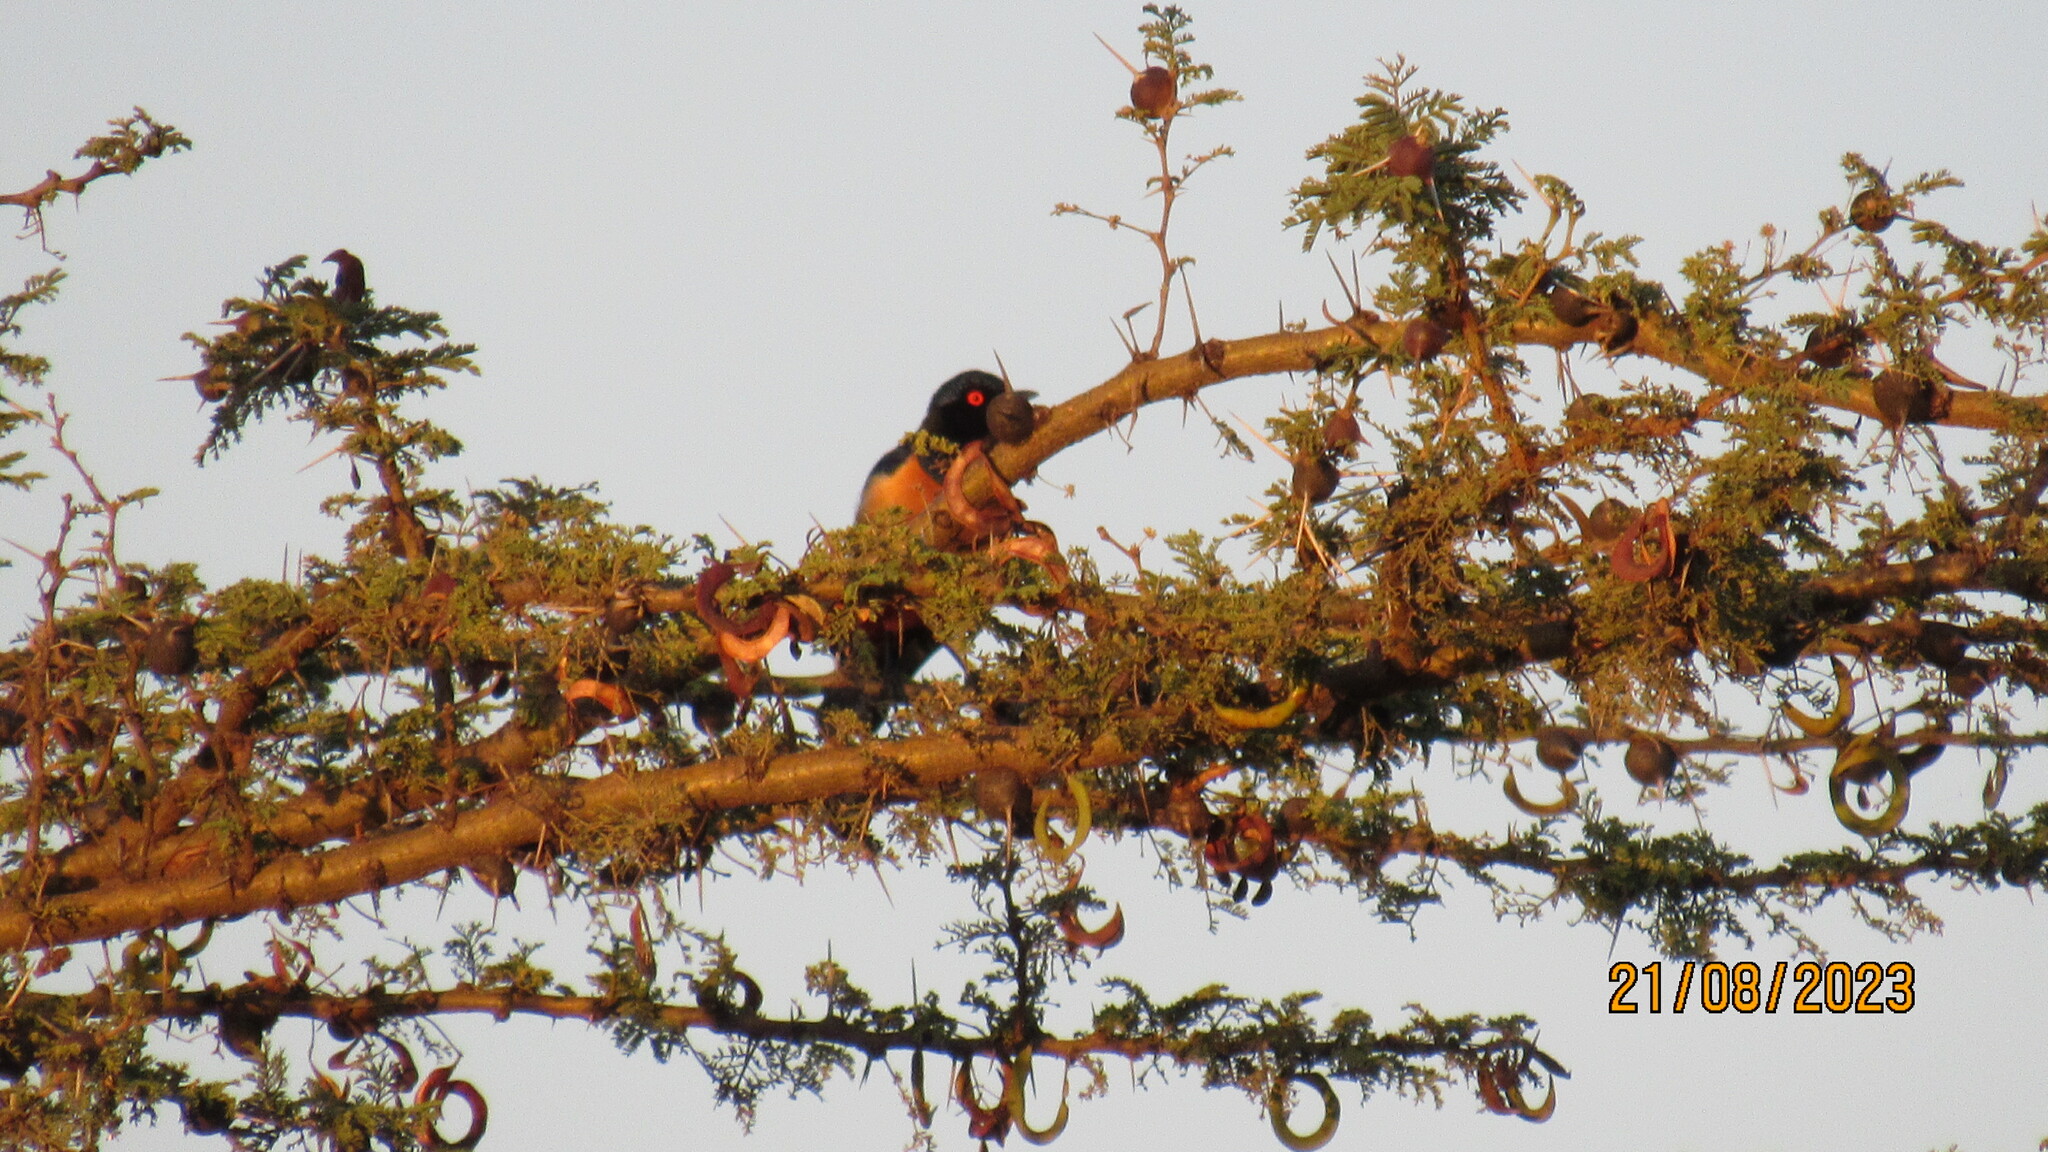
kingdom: Animalia
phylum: Chordata
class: Aves
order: Passeriformes
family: Sturnidae
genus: Lamprotornis
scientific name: Lamprotornis hildebrandti
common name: Hildebrandt's starling
